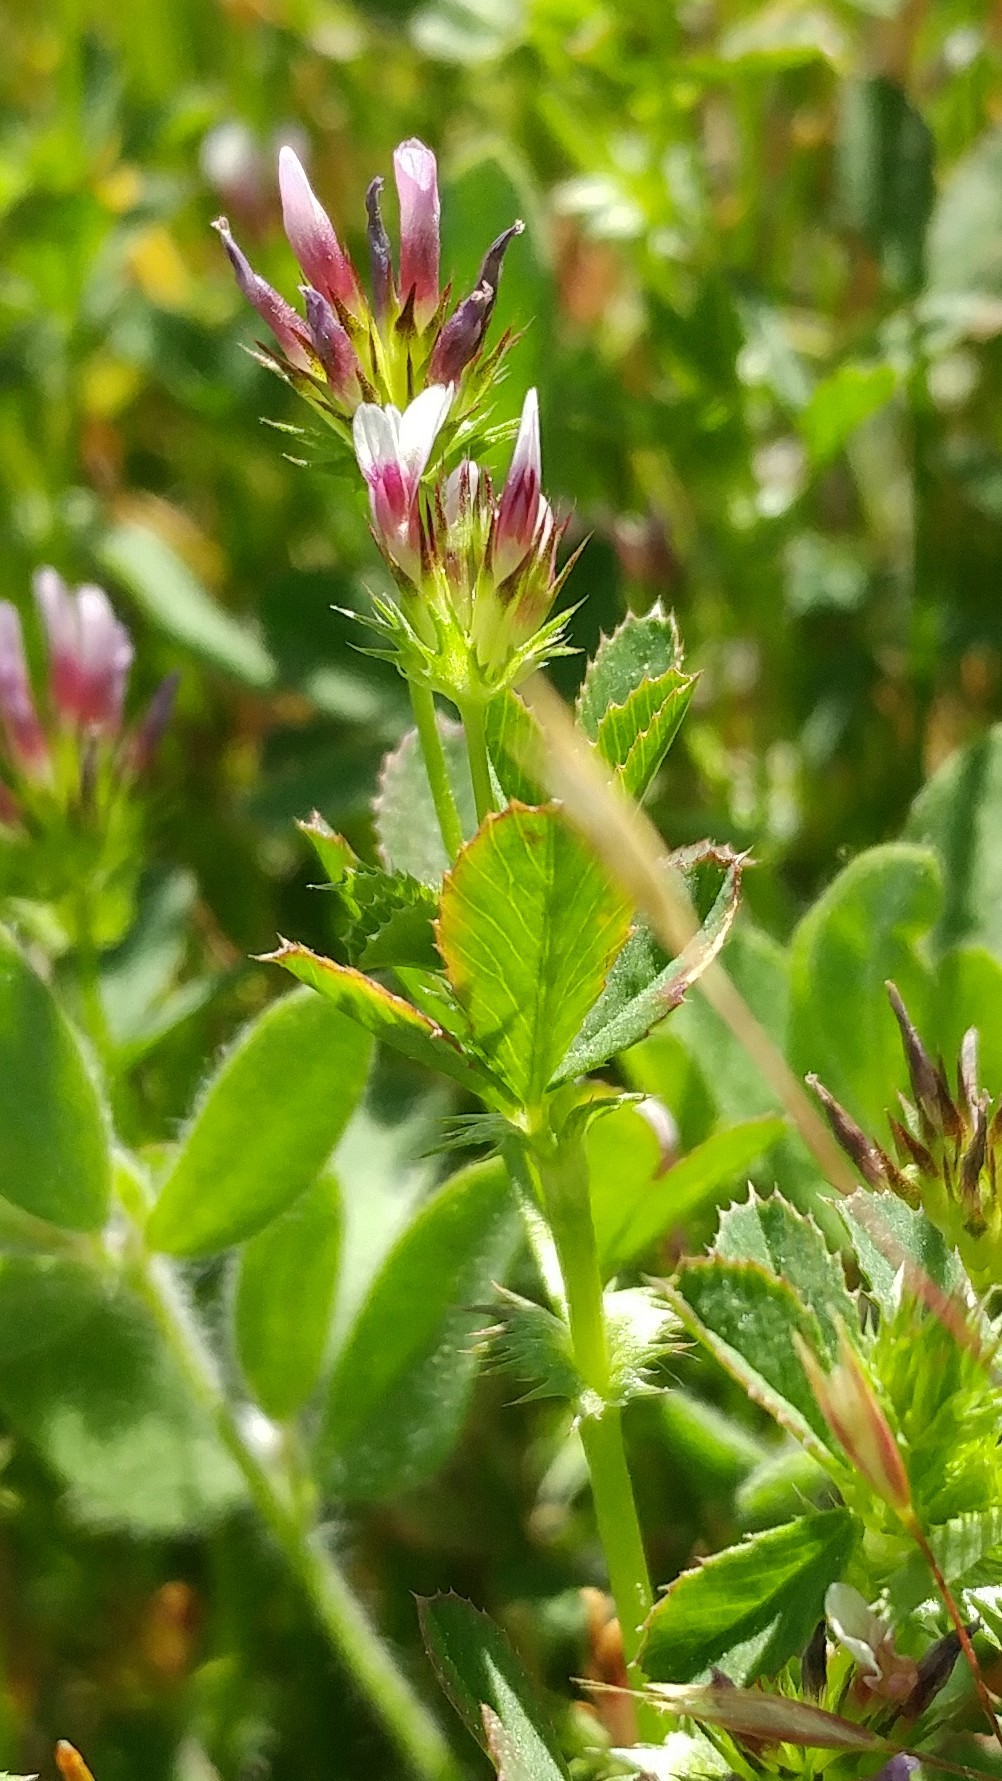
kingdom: Plantae
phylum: Tracheophyta
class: Magnoliopsida
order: Fabales
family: Fabaceae
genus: Trifolium
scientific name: Trifolium variegatum
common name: Whitetip clover
